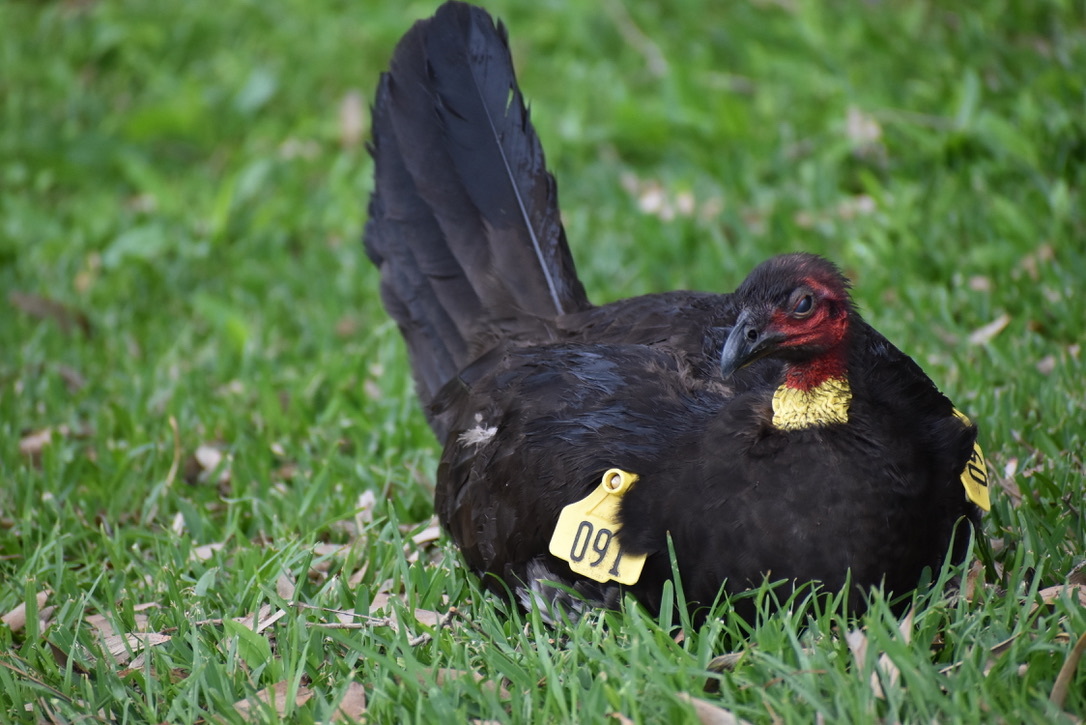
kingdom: Animalia
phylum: Chordata
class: Aves
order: Galliformes
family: Megapodiidae
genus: Alectura
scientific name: Alectura lathami
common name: Australian brushturkey
